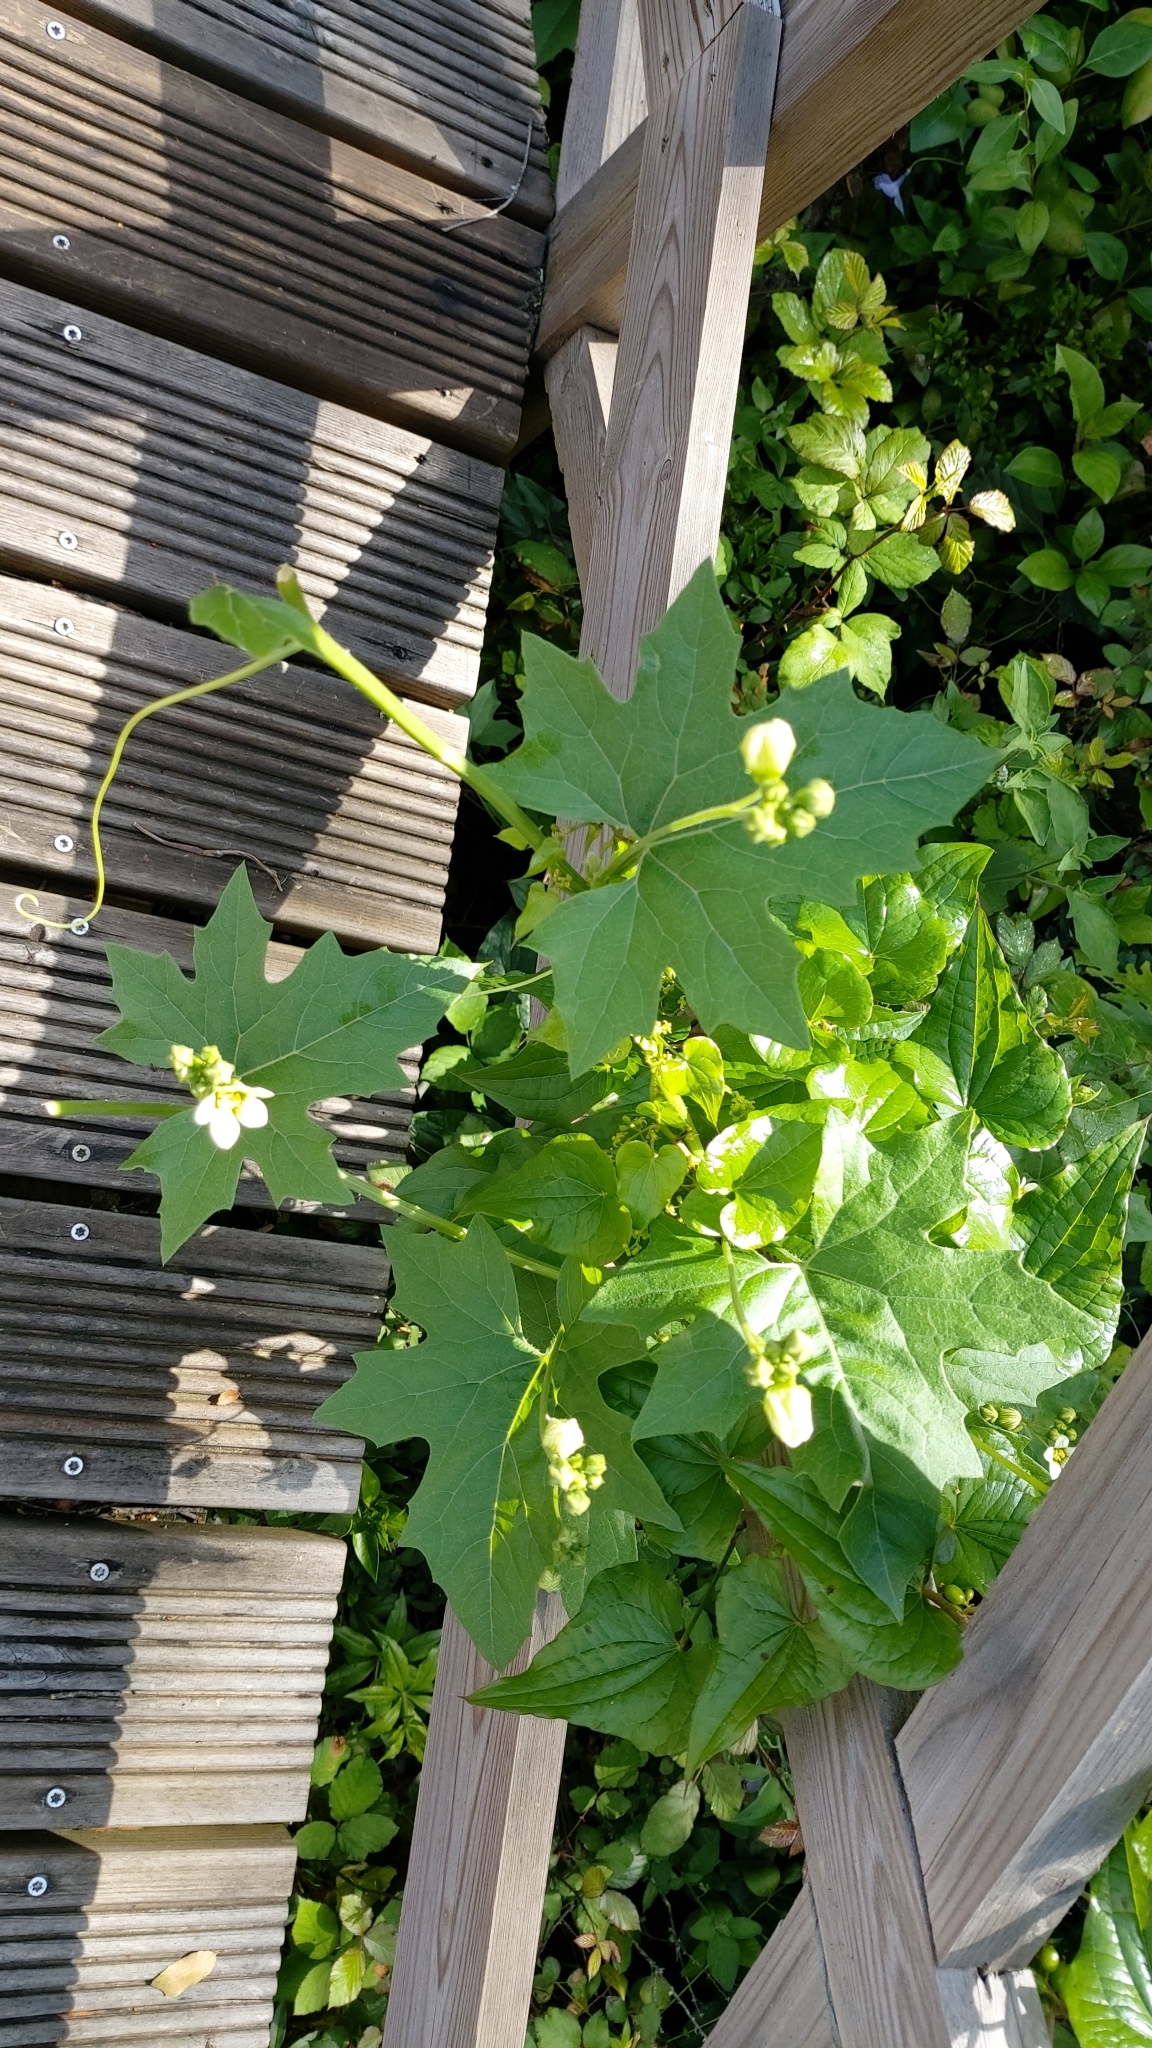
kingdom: Plantae
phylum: Tracheophyta
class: Magnoliopsida
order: Cucurbitales
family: Cucurbitaceae
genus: Bryonia
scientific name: Bryonia cretica
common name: Cretan bryony
